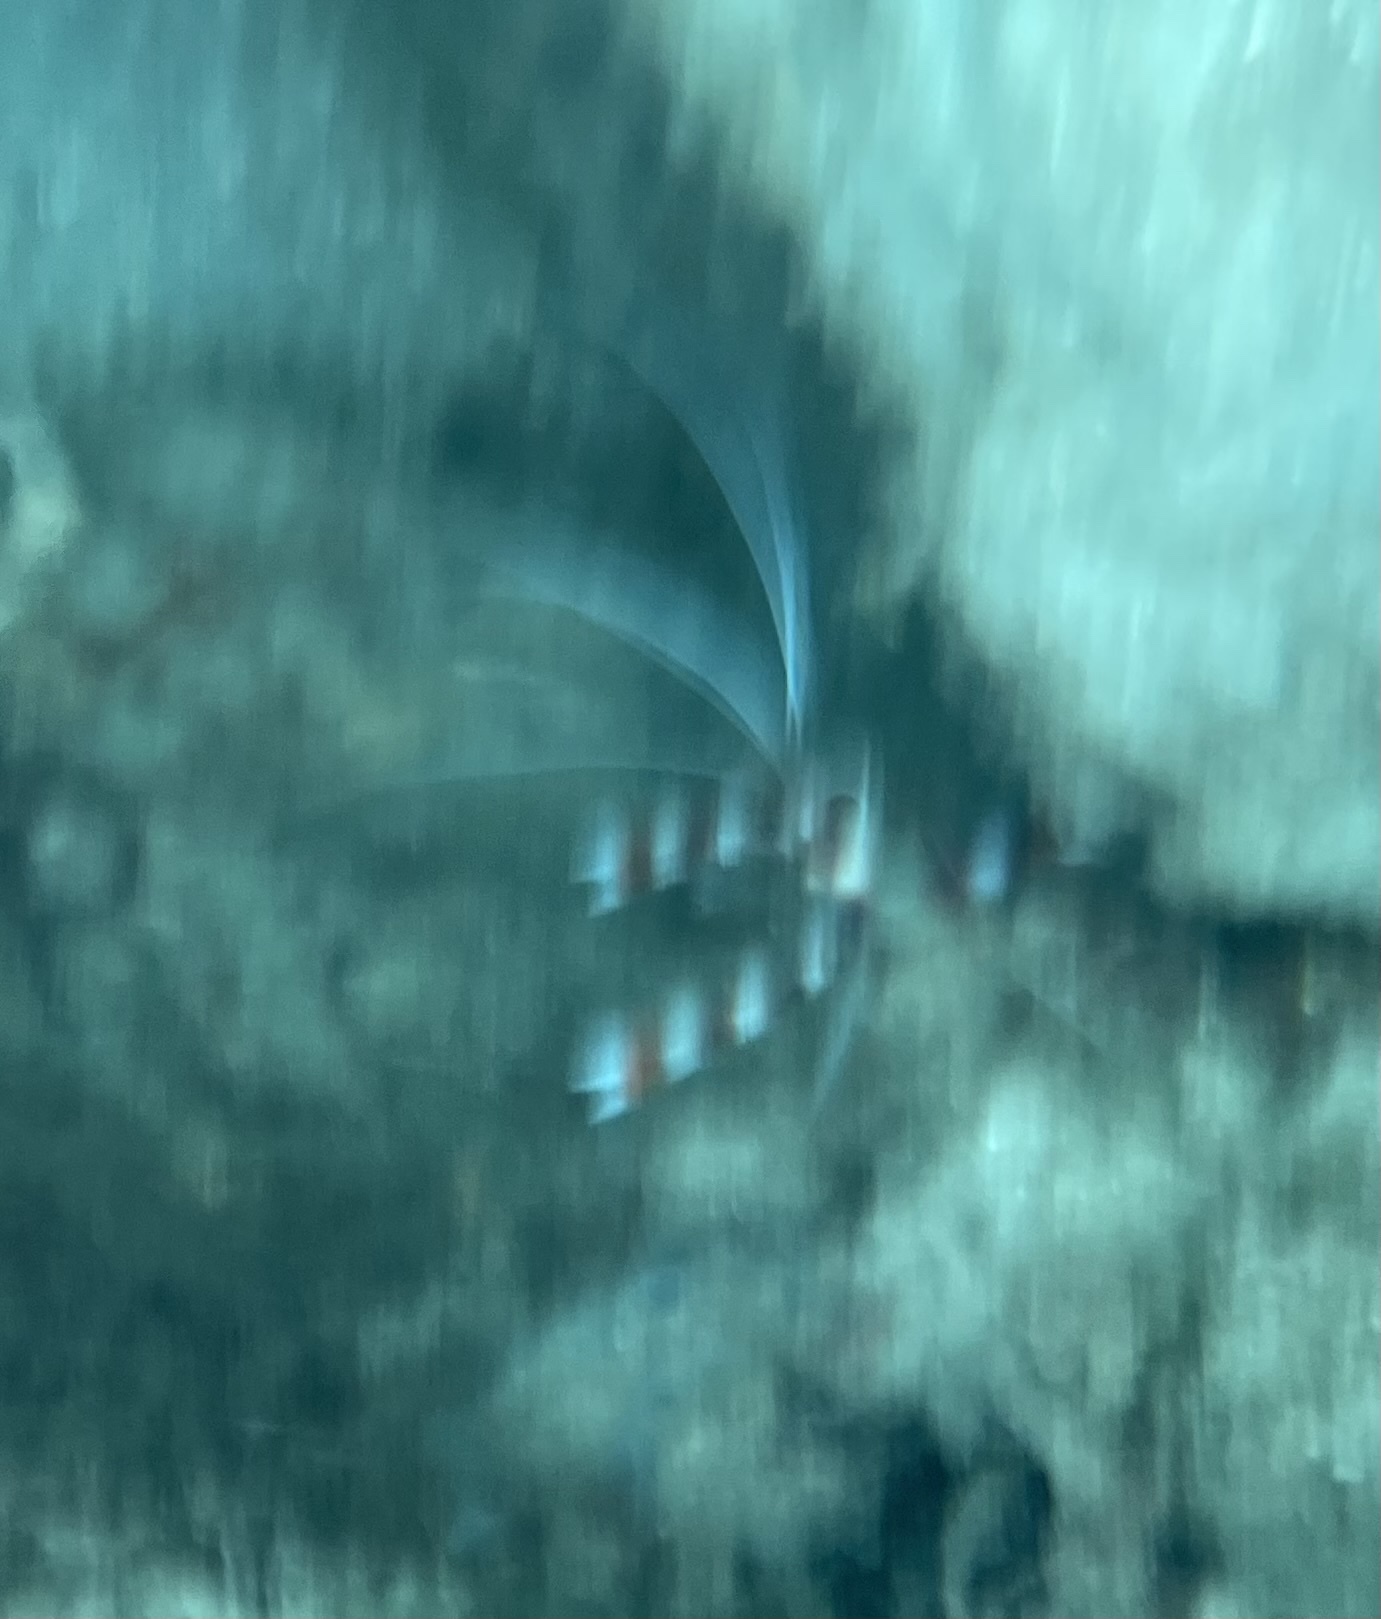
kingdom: Animalia
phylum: Arthropoda
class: Malacostraca
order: Decapoda
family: Stenopodidae
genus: Stenopus
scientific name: Stenopus hispidus
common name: Banded coral shrimp
